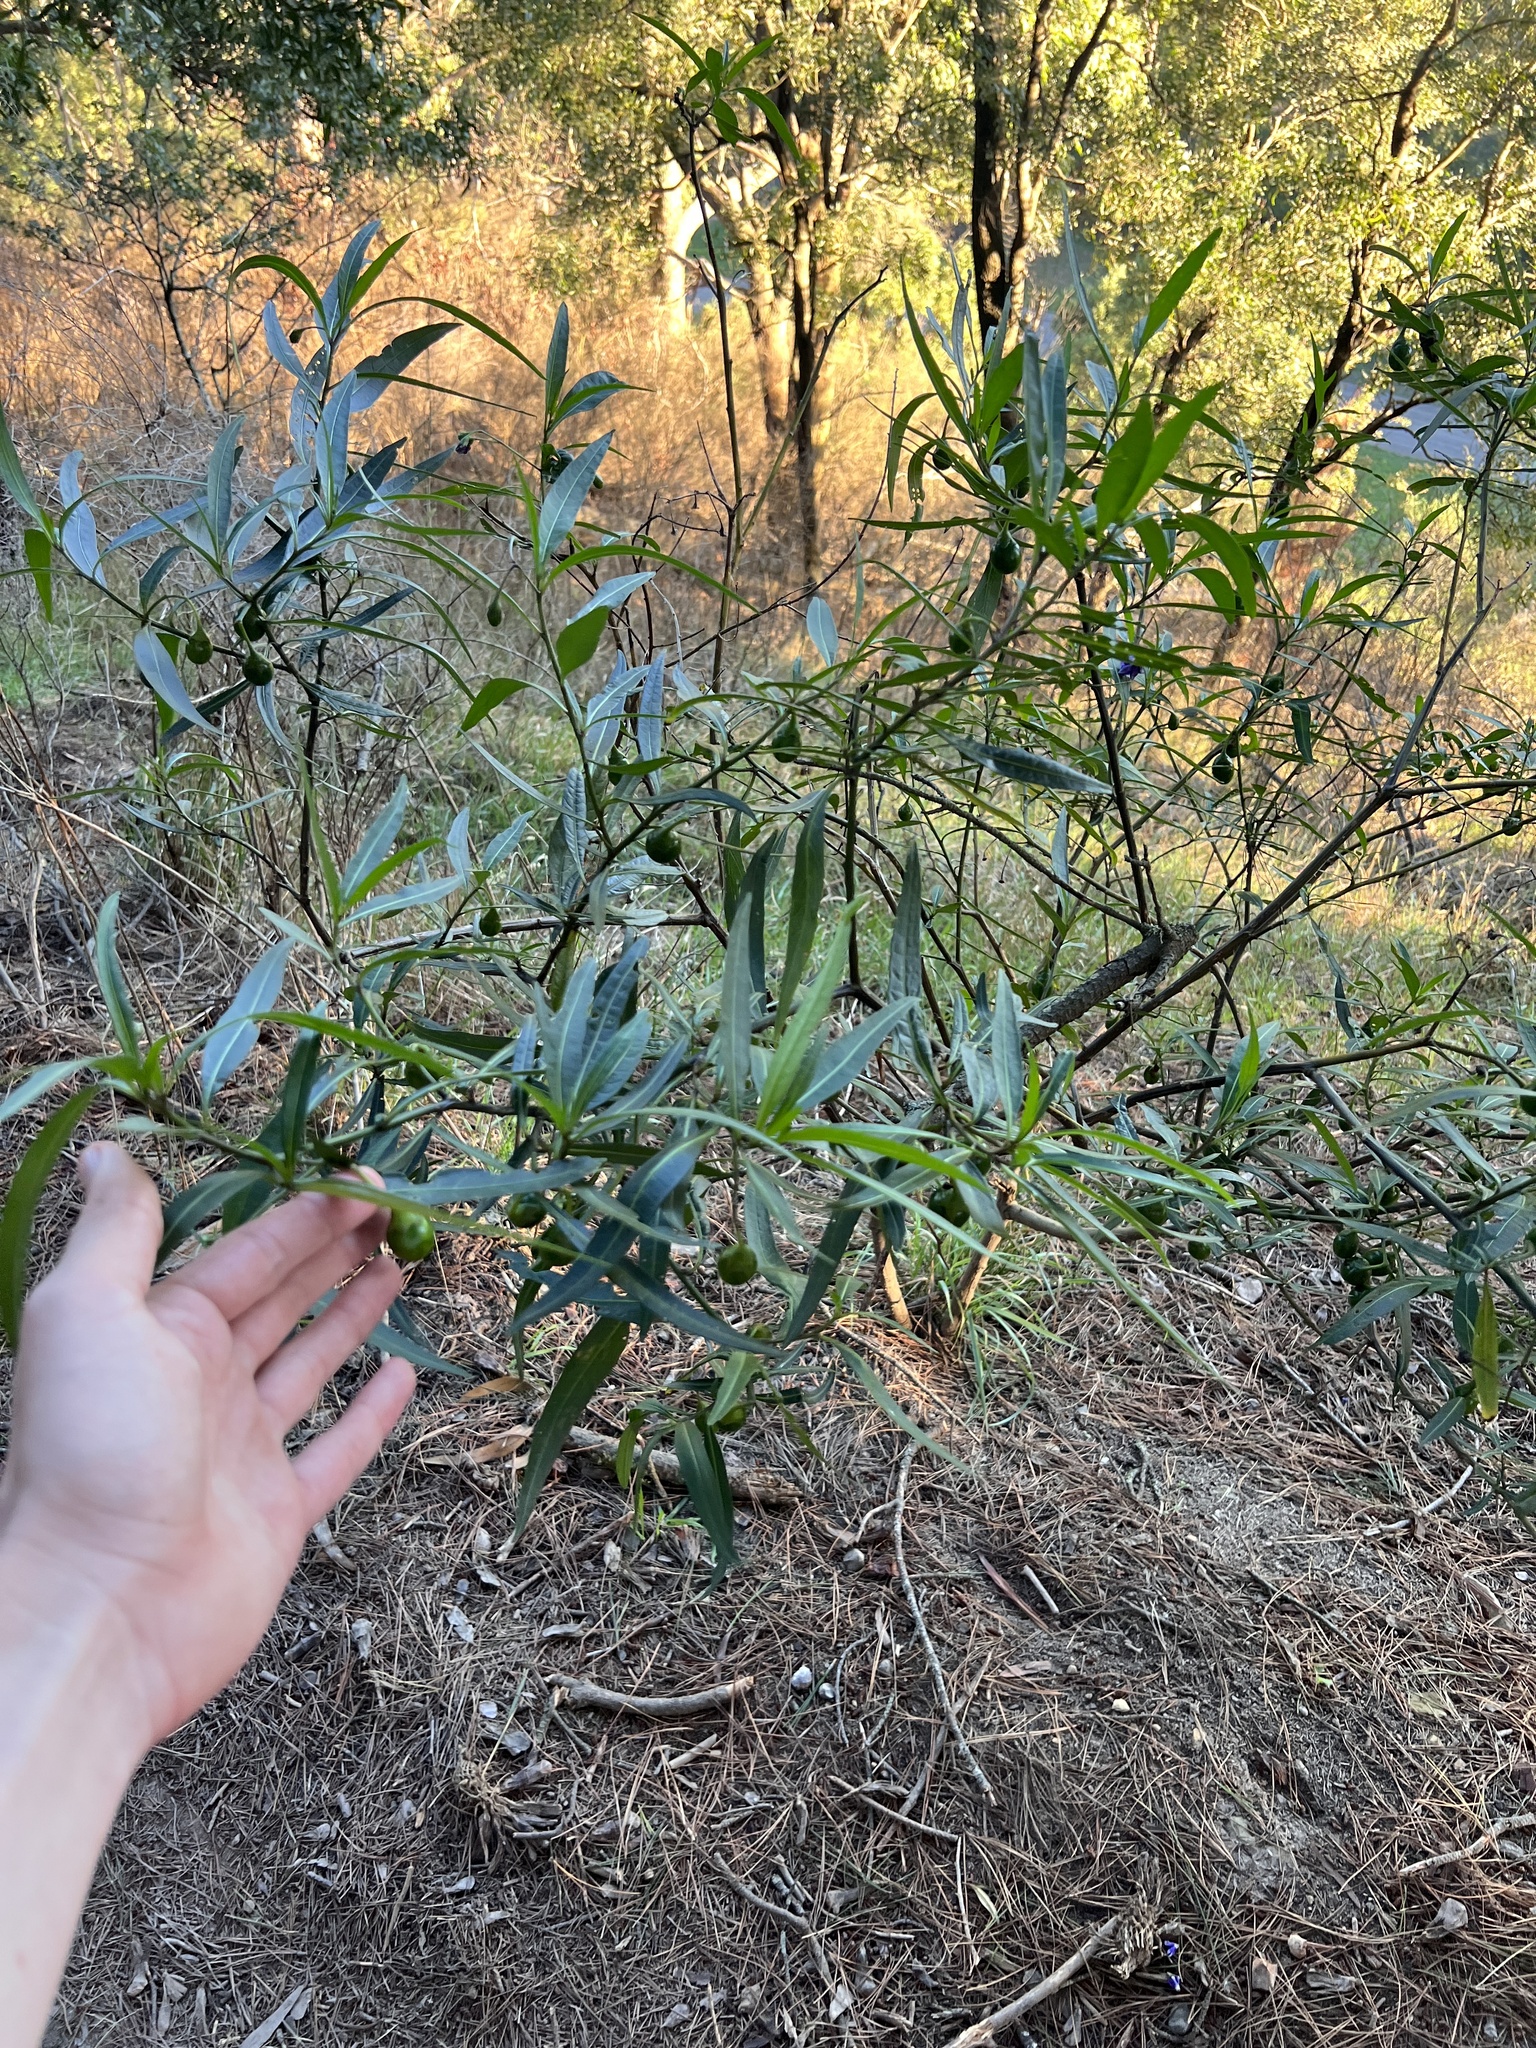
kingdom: Plantae
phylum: Tracheophyta
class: Magnoliopsida
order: Solanales
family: Solanaceae
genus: Solanum
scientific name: Solanum laciniatum
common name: Kangaroo-apple
